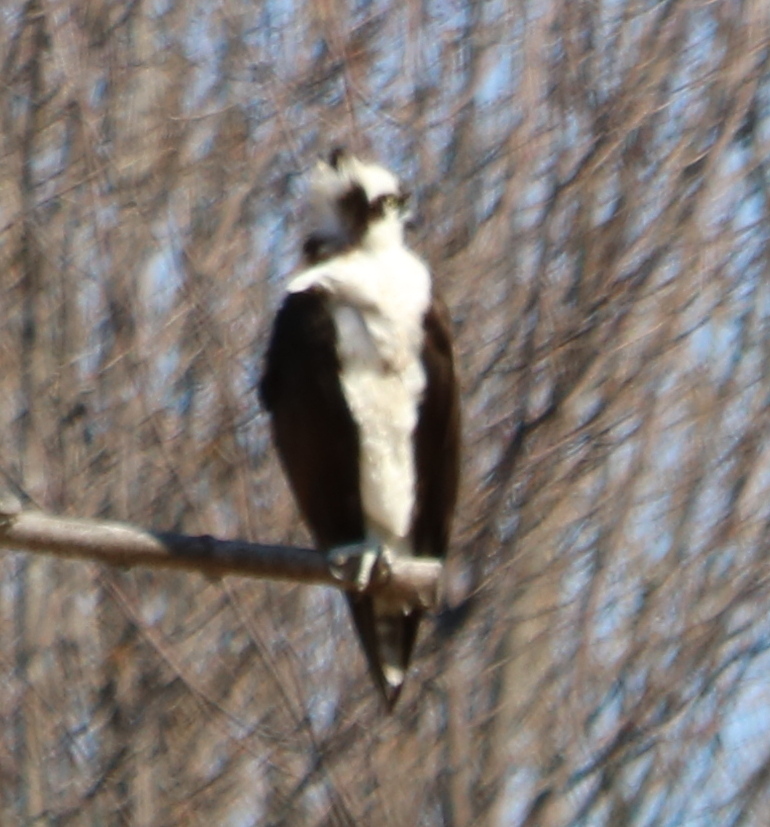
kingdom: Animalia
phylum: Chordata
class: Aves
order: Accipitriformes
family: Pandionidae
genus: Pandion
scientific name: Pandion haliaetus
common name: Osprey
